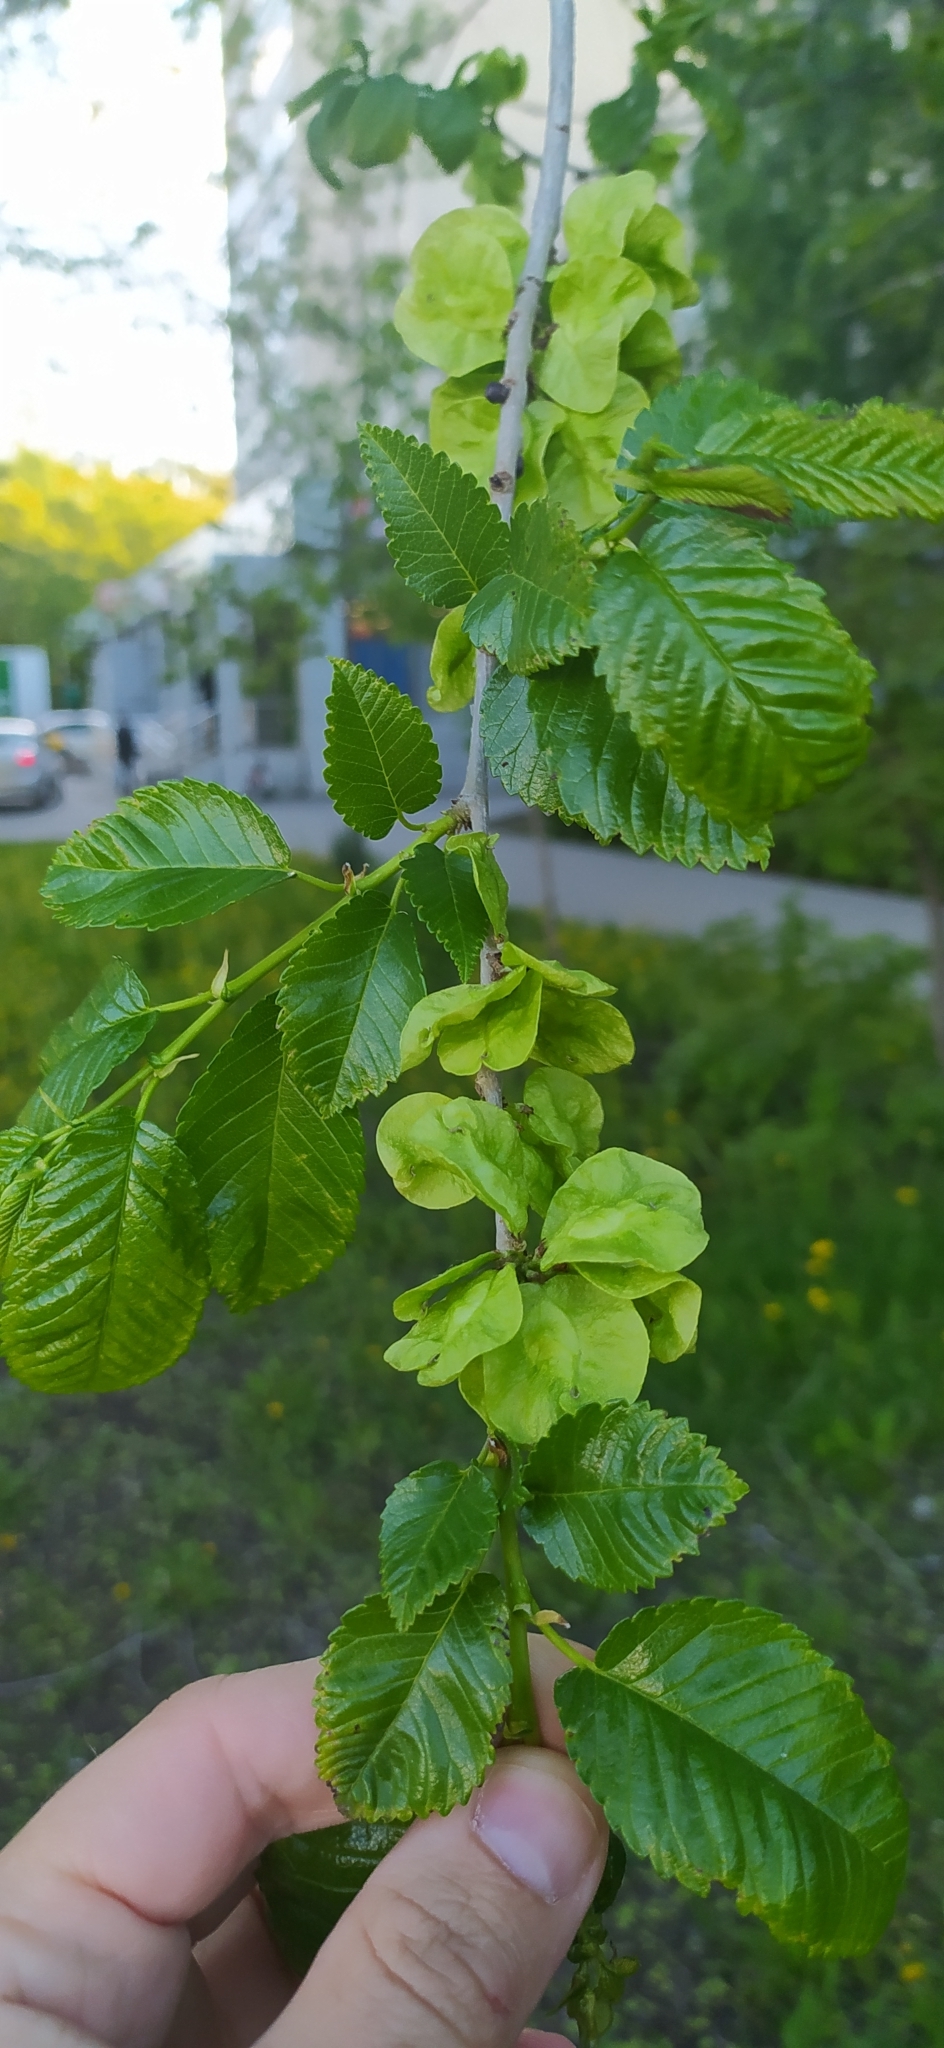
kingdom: Plantae
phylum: Tracheophyta
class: Magnoliopsida
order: Rosales
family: Ulmaceae
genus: Ulmus
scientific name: Ulmus pumila
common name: Siberian elm
